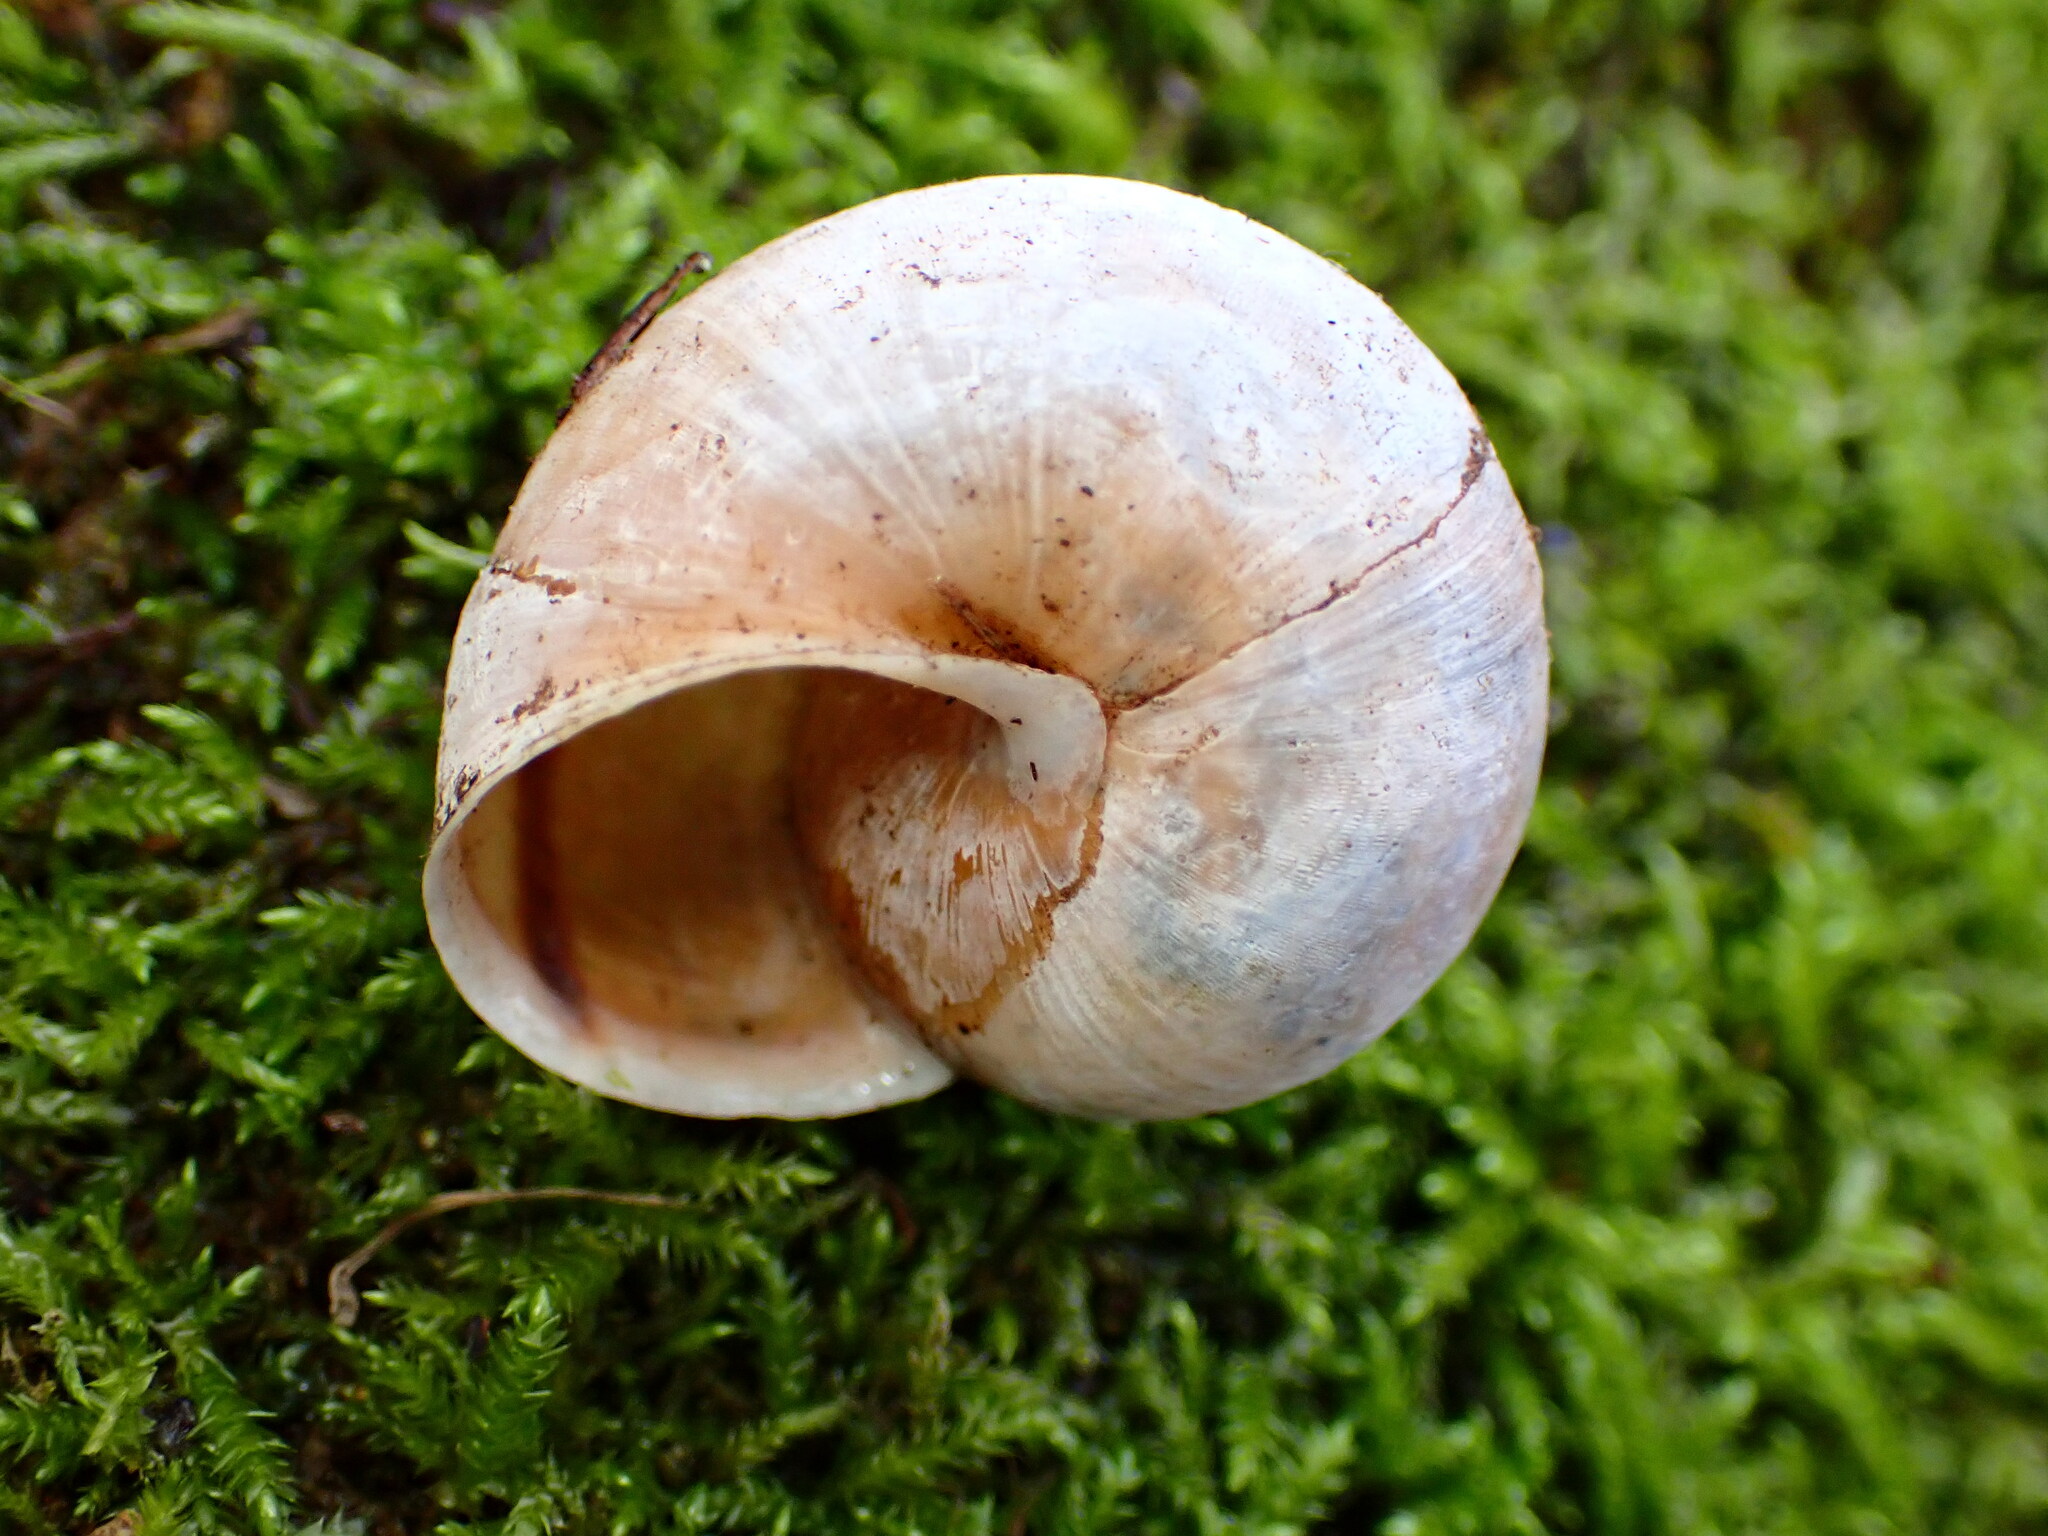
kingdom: Animalia
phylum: Mollusca
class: Gastropoda
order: Stylommatophora
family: Xanthonychidae
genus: Helminthoglypta
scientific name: Helminthoglypta nickliniana
